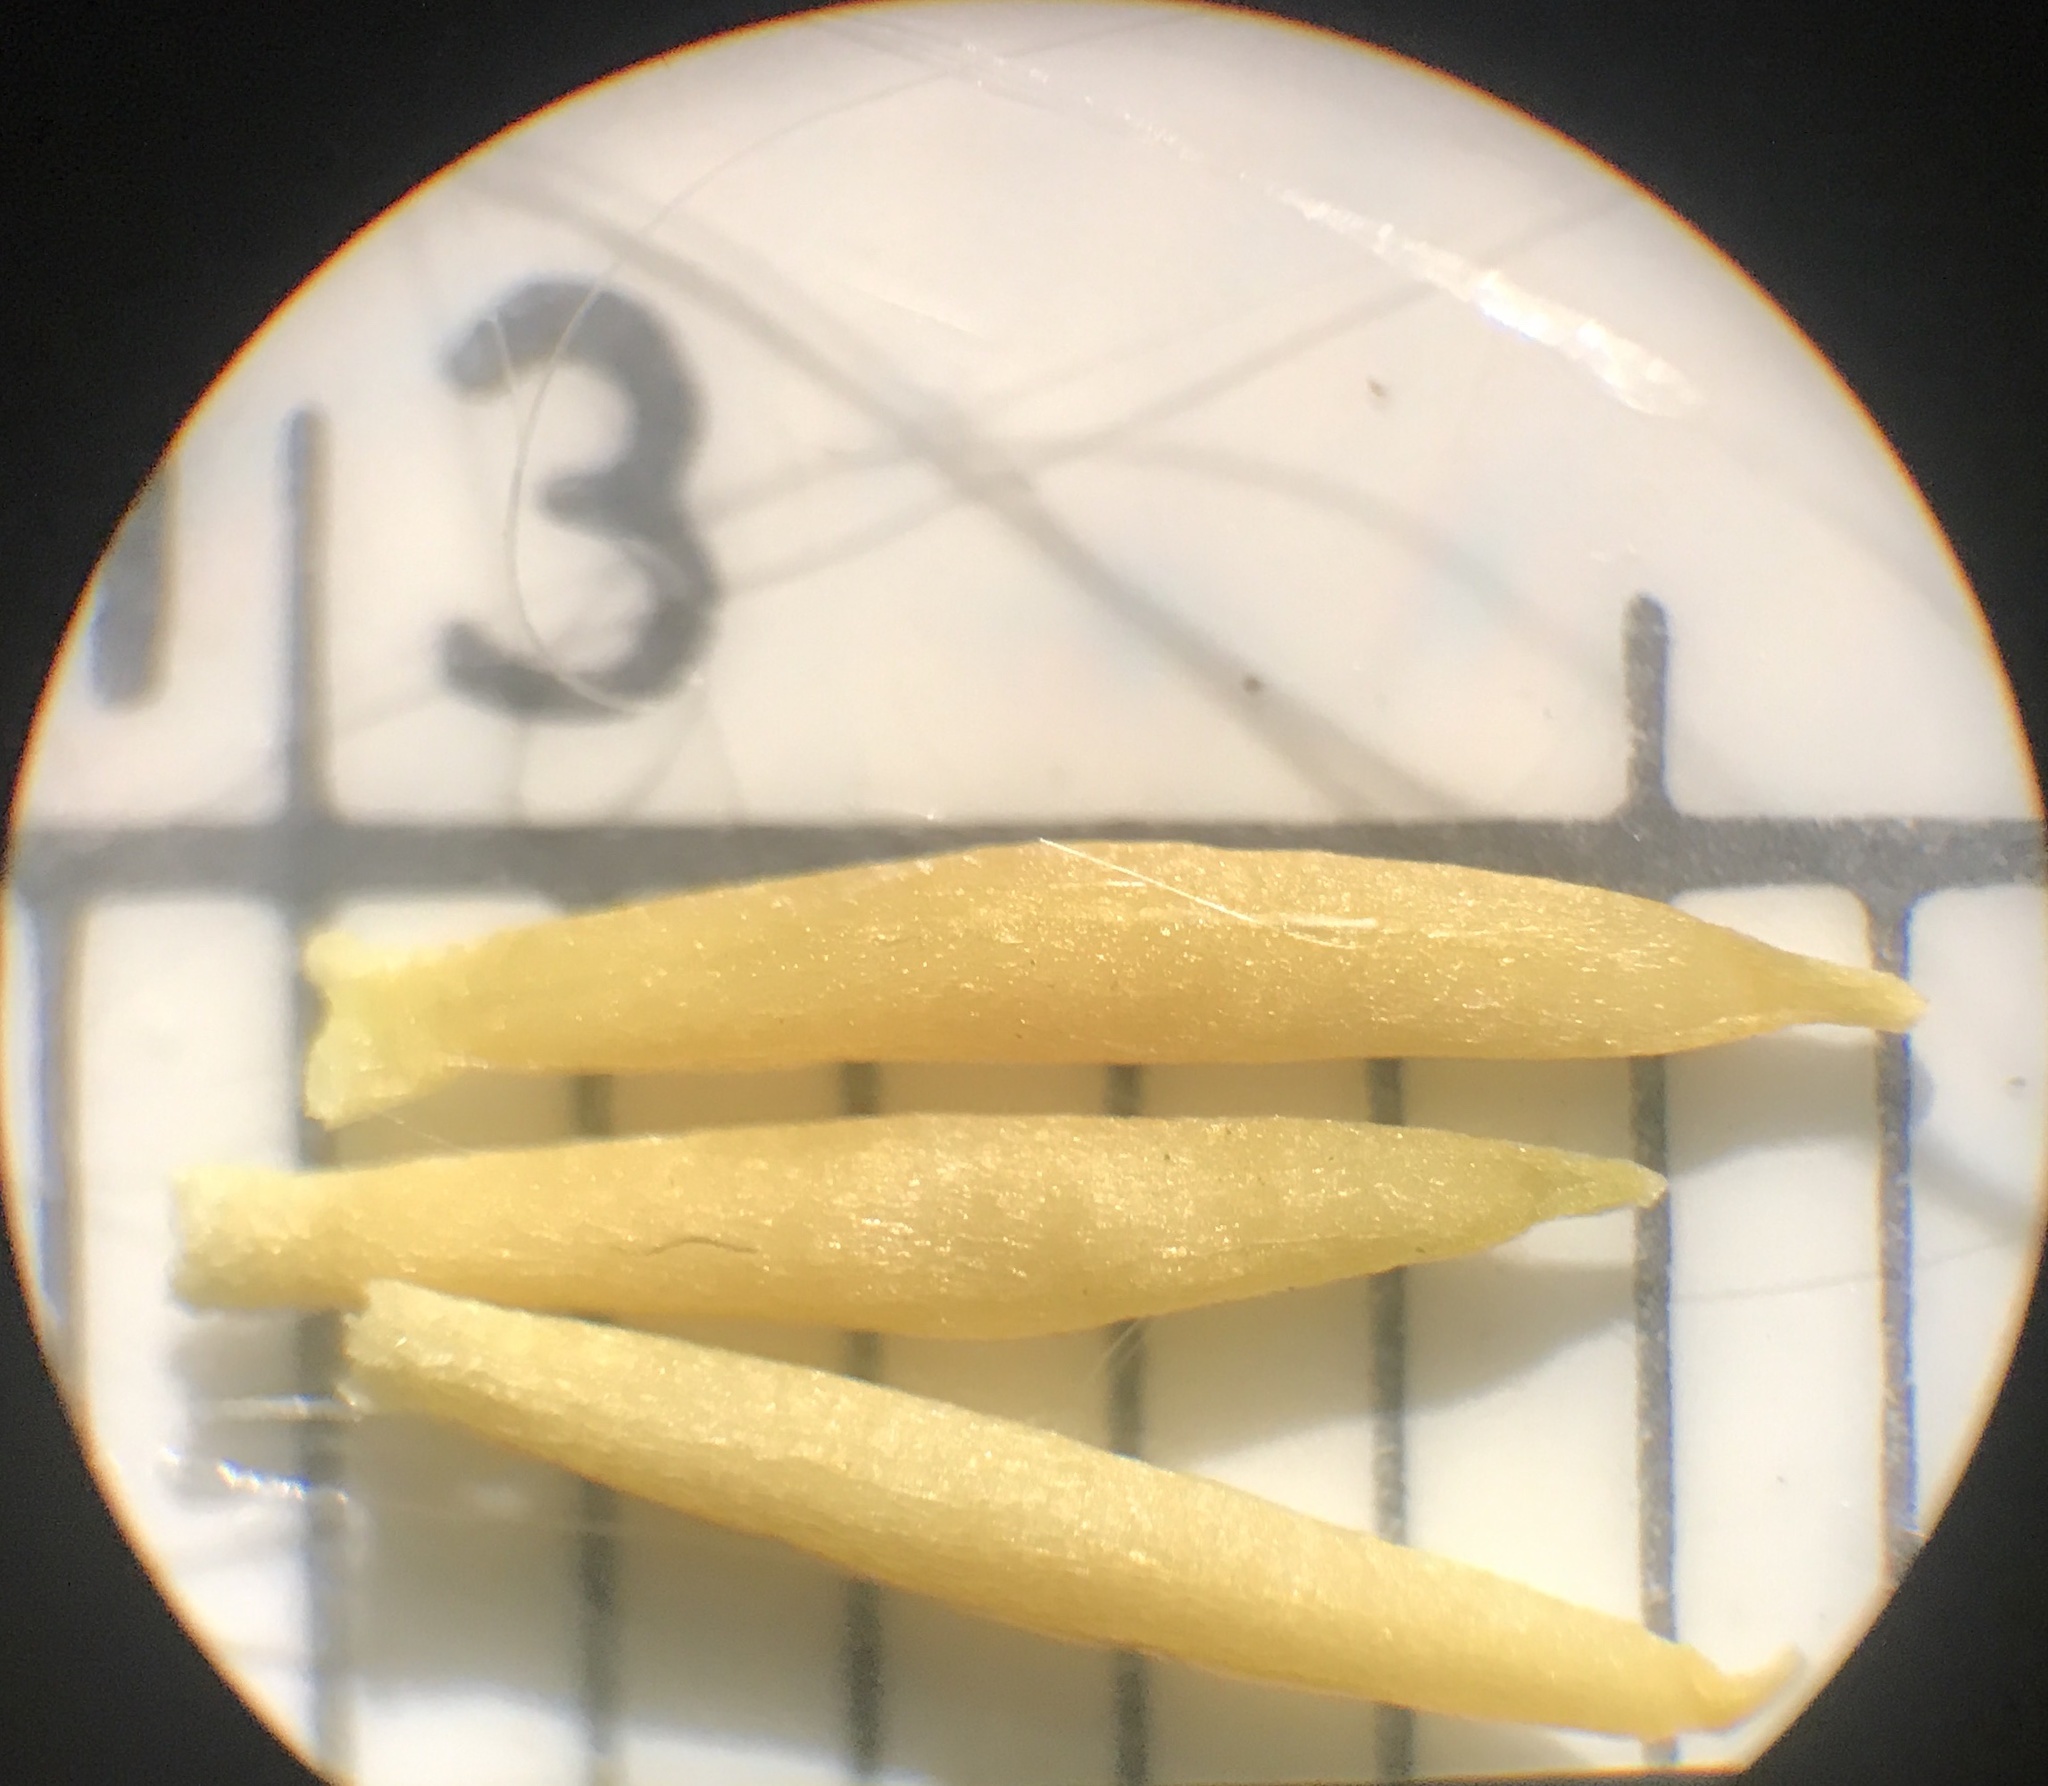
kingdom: Plantae
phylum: Tracheophyta
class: Magnoliopsida
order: Gentianales
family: Apocynaceae
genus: Apocynum
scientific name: Apocynum cannabinum
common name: Hemp dogbane
